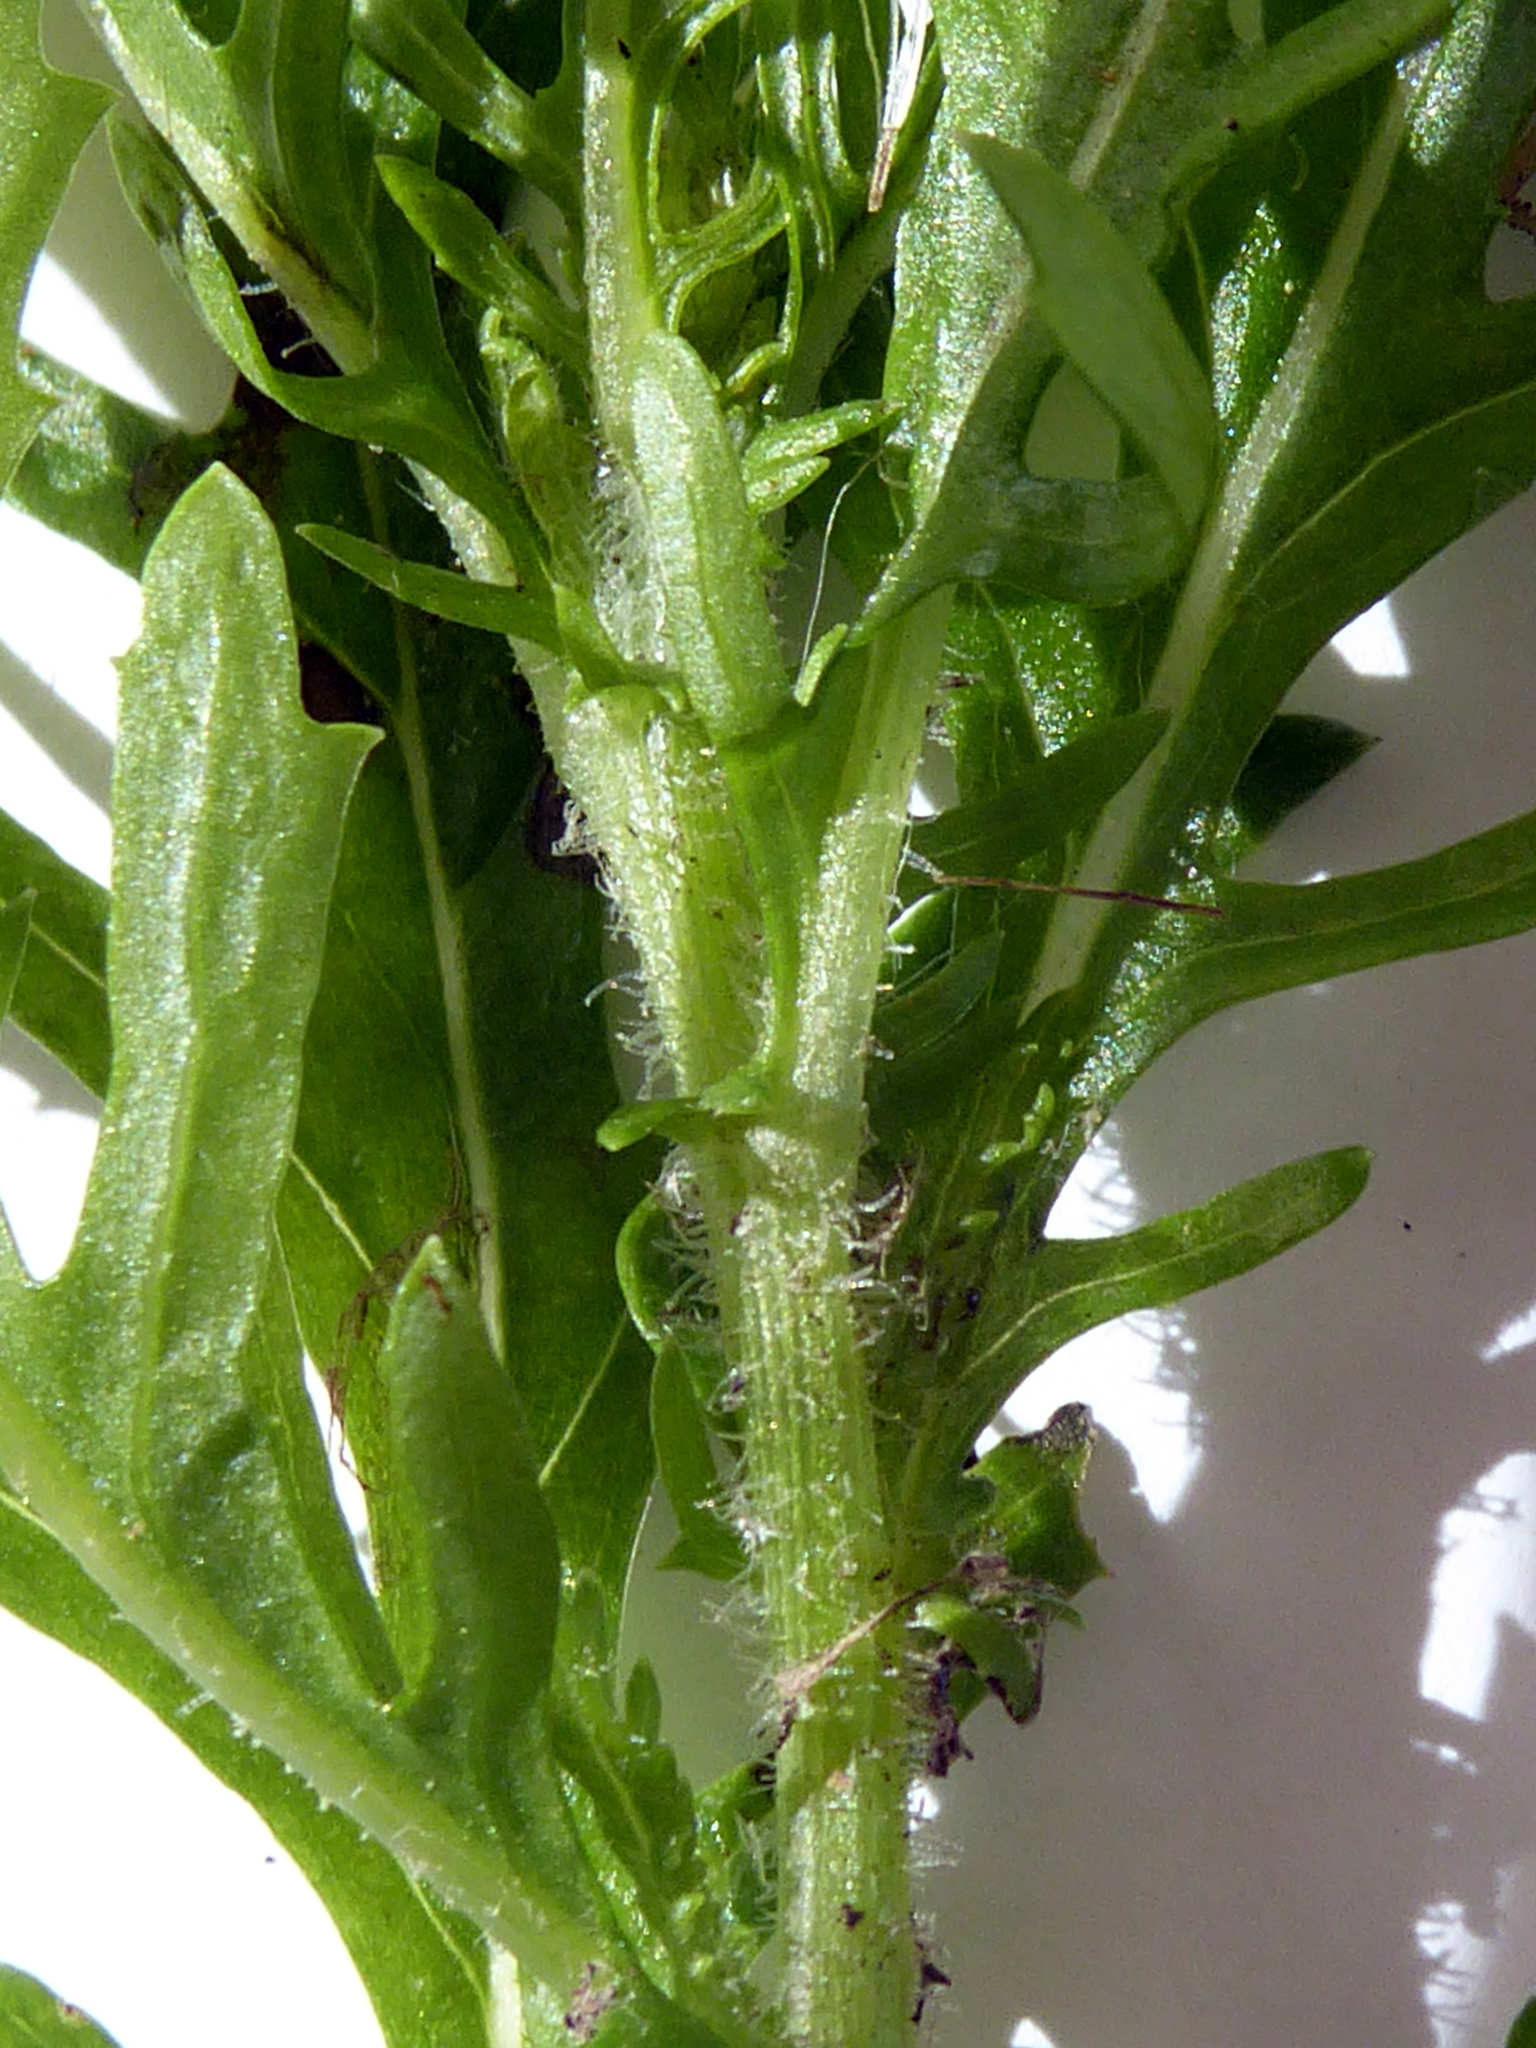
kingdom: Plantae
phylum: Tracheophyta
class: Magnoliopsida
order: Asterales
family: Asteraceae
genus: Senecio
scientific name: Senecio esleri
